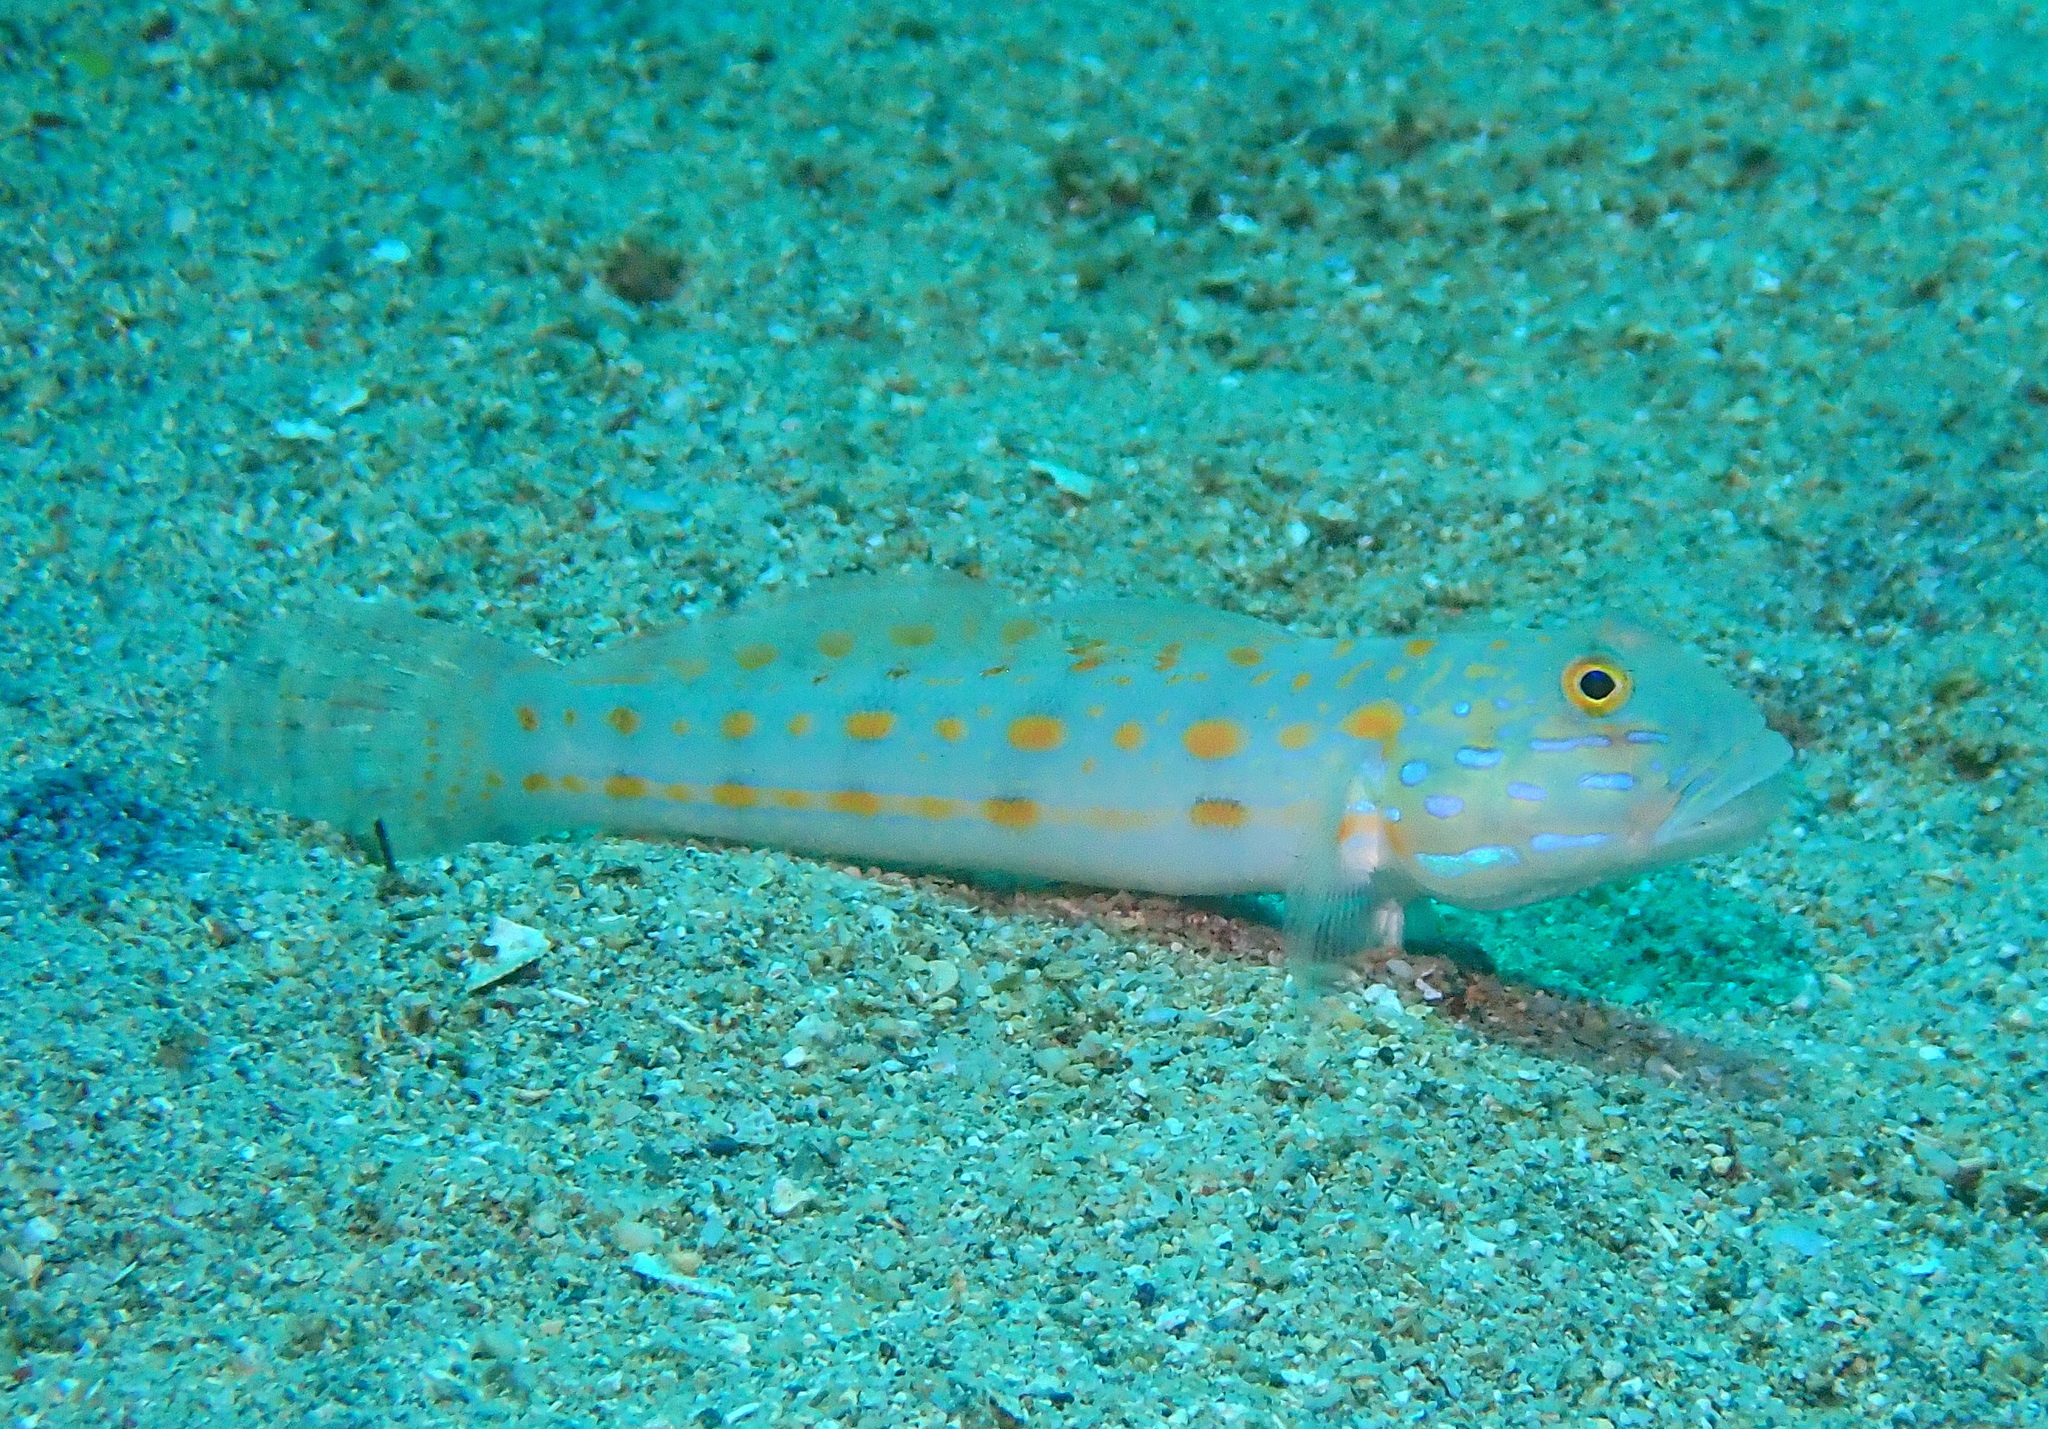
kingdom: Animalia
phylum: Chordata
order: Perciformes
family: Gobiidae
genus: Valenciennea
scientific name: Valenciennea puellaris
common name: Orange-dashed goby
